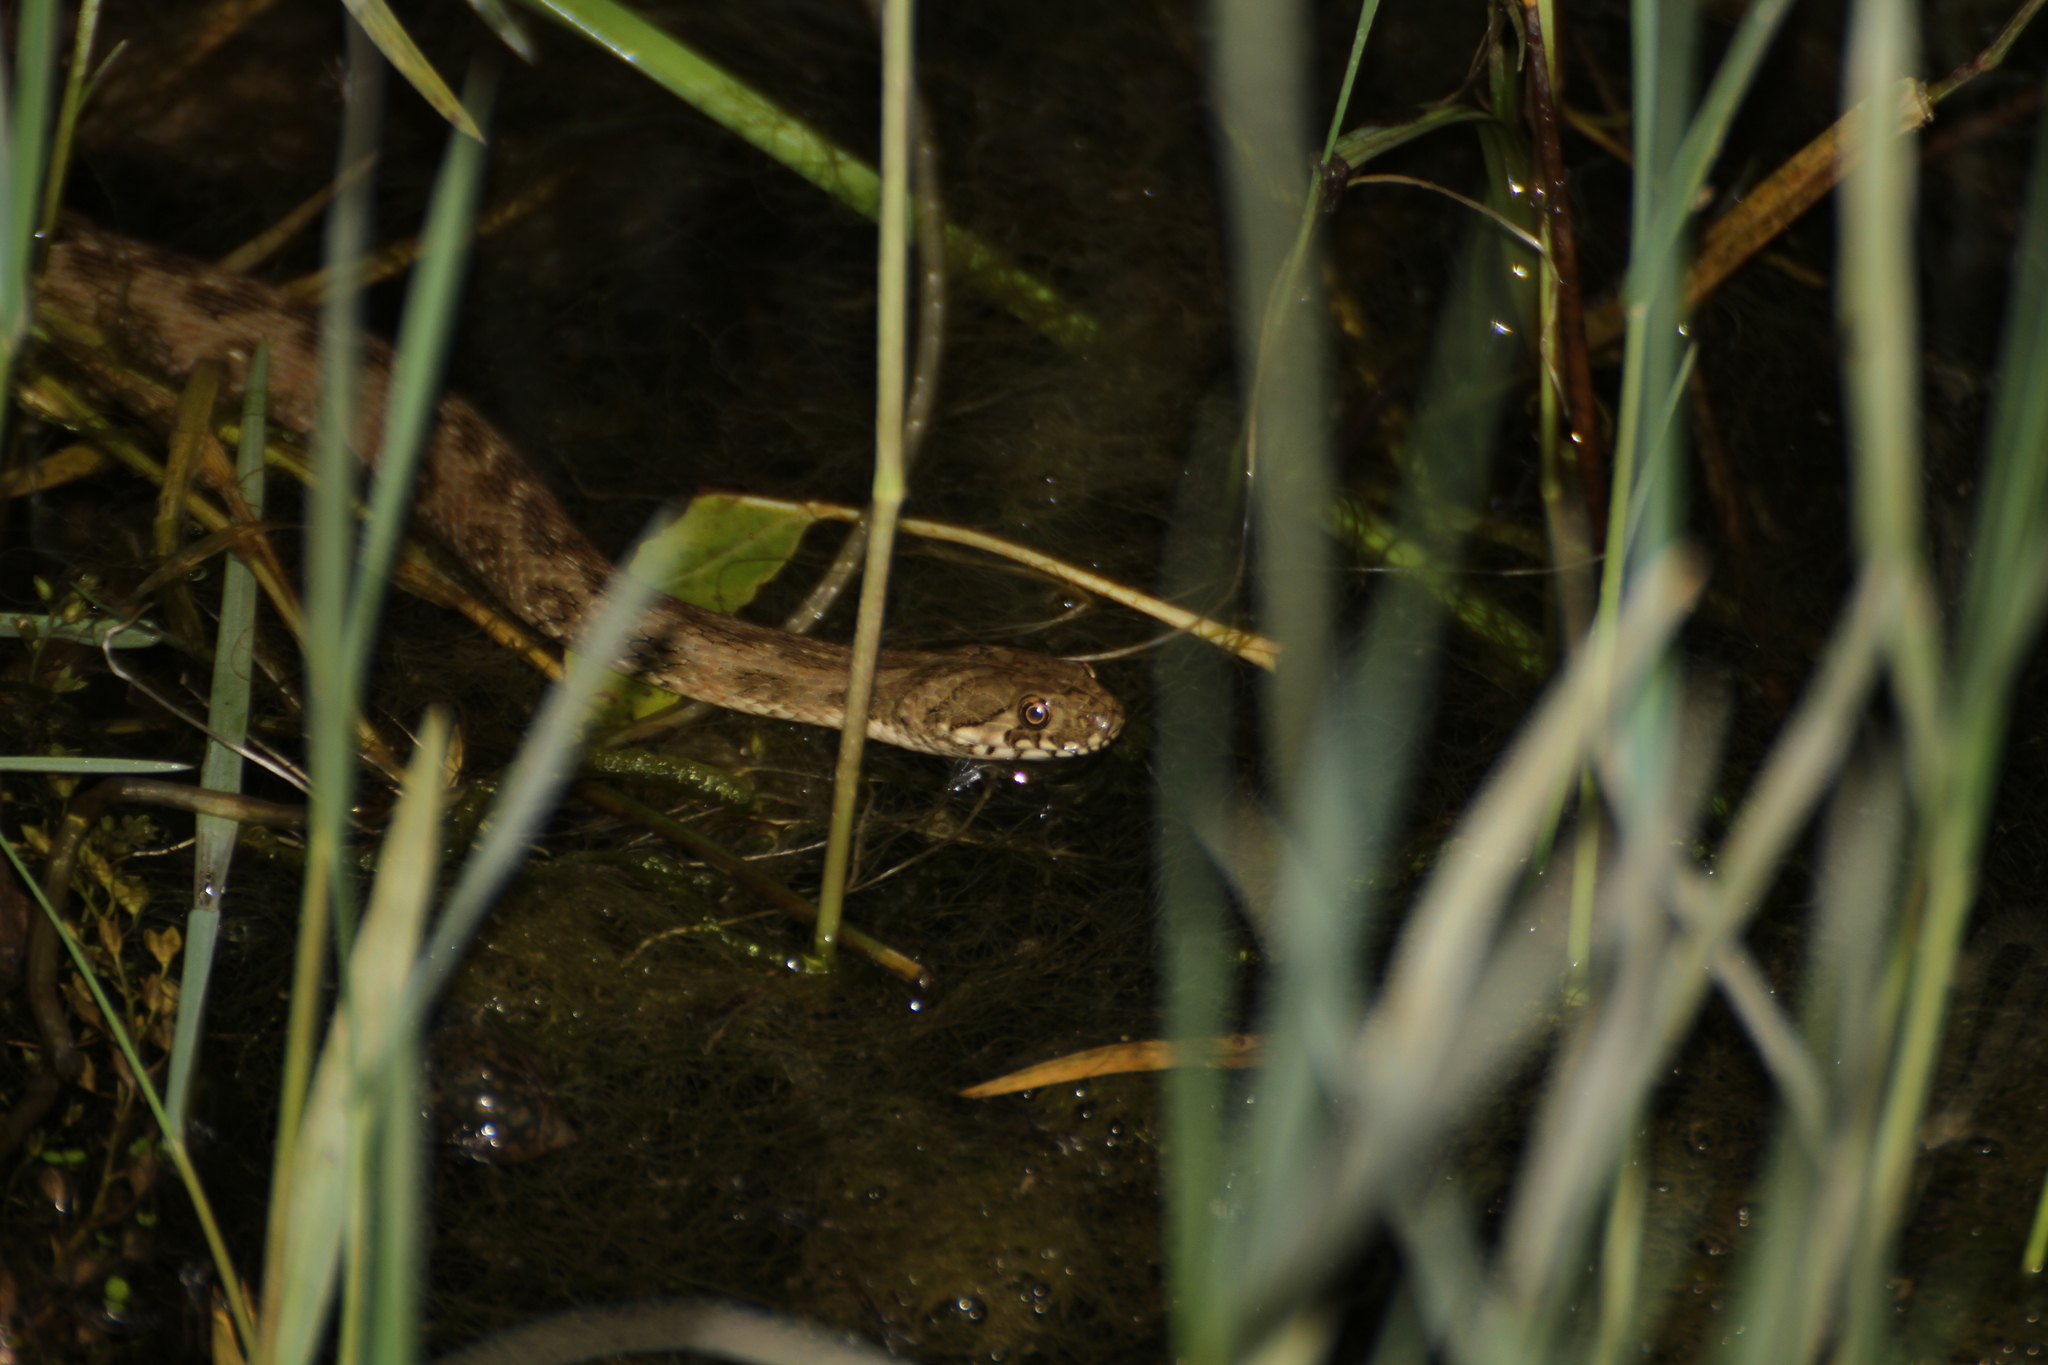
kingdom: Animalia
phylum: Chordata
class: Squamata
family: Colubridae
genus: Natrix
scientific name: Natrix maura
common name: Viperine water snake
